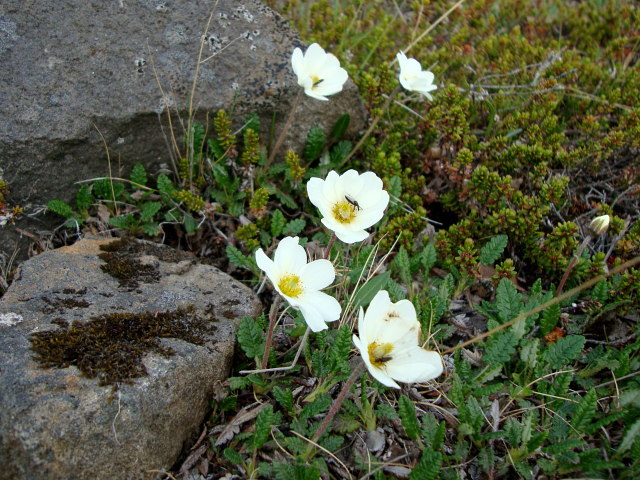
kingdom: Plantae
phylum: Tracheophyta
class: Magnoliopsida
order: Rosales
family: Rosaceae
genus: Dryas
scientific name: Dryas octopetala
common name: Eight-petal mountain-avens
